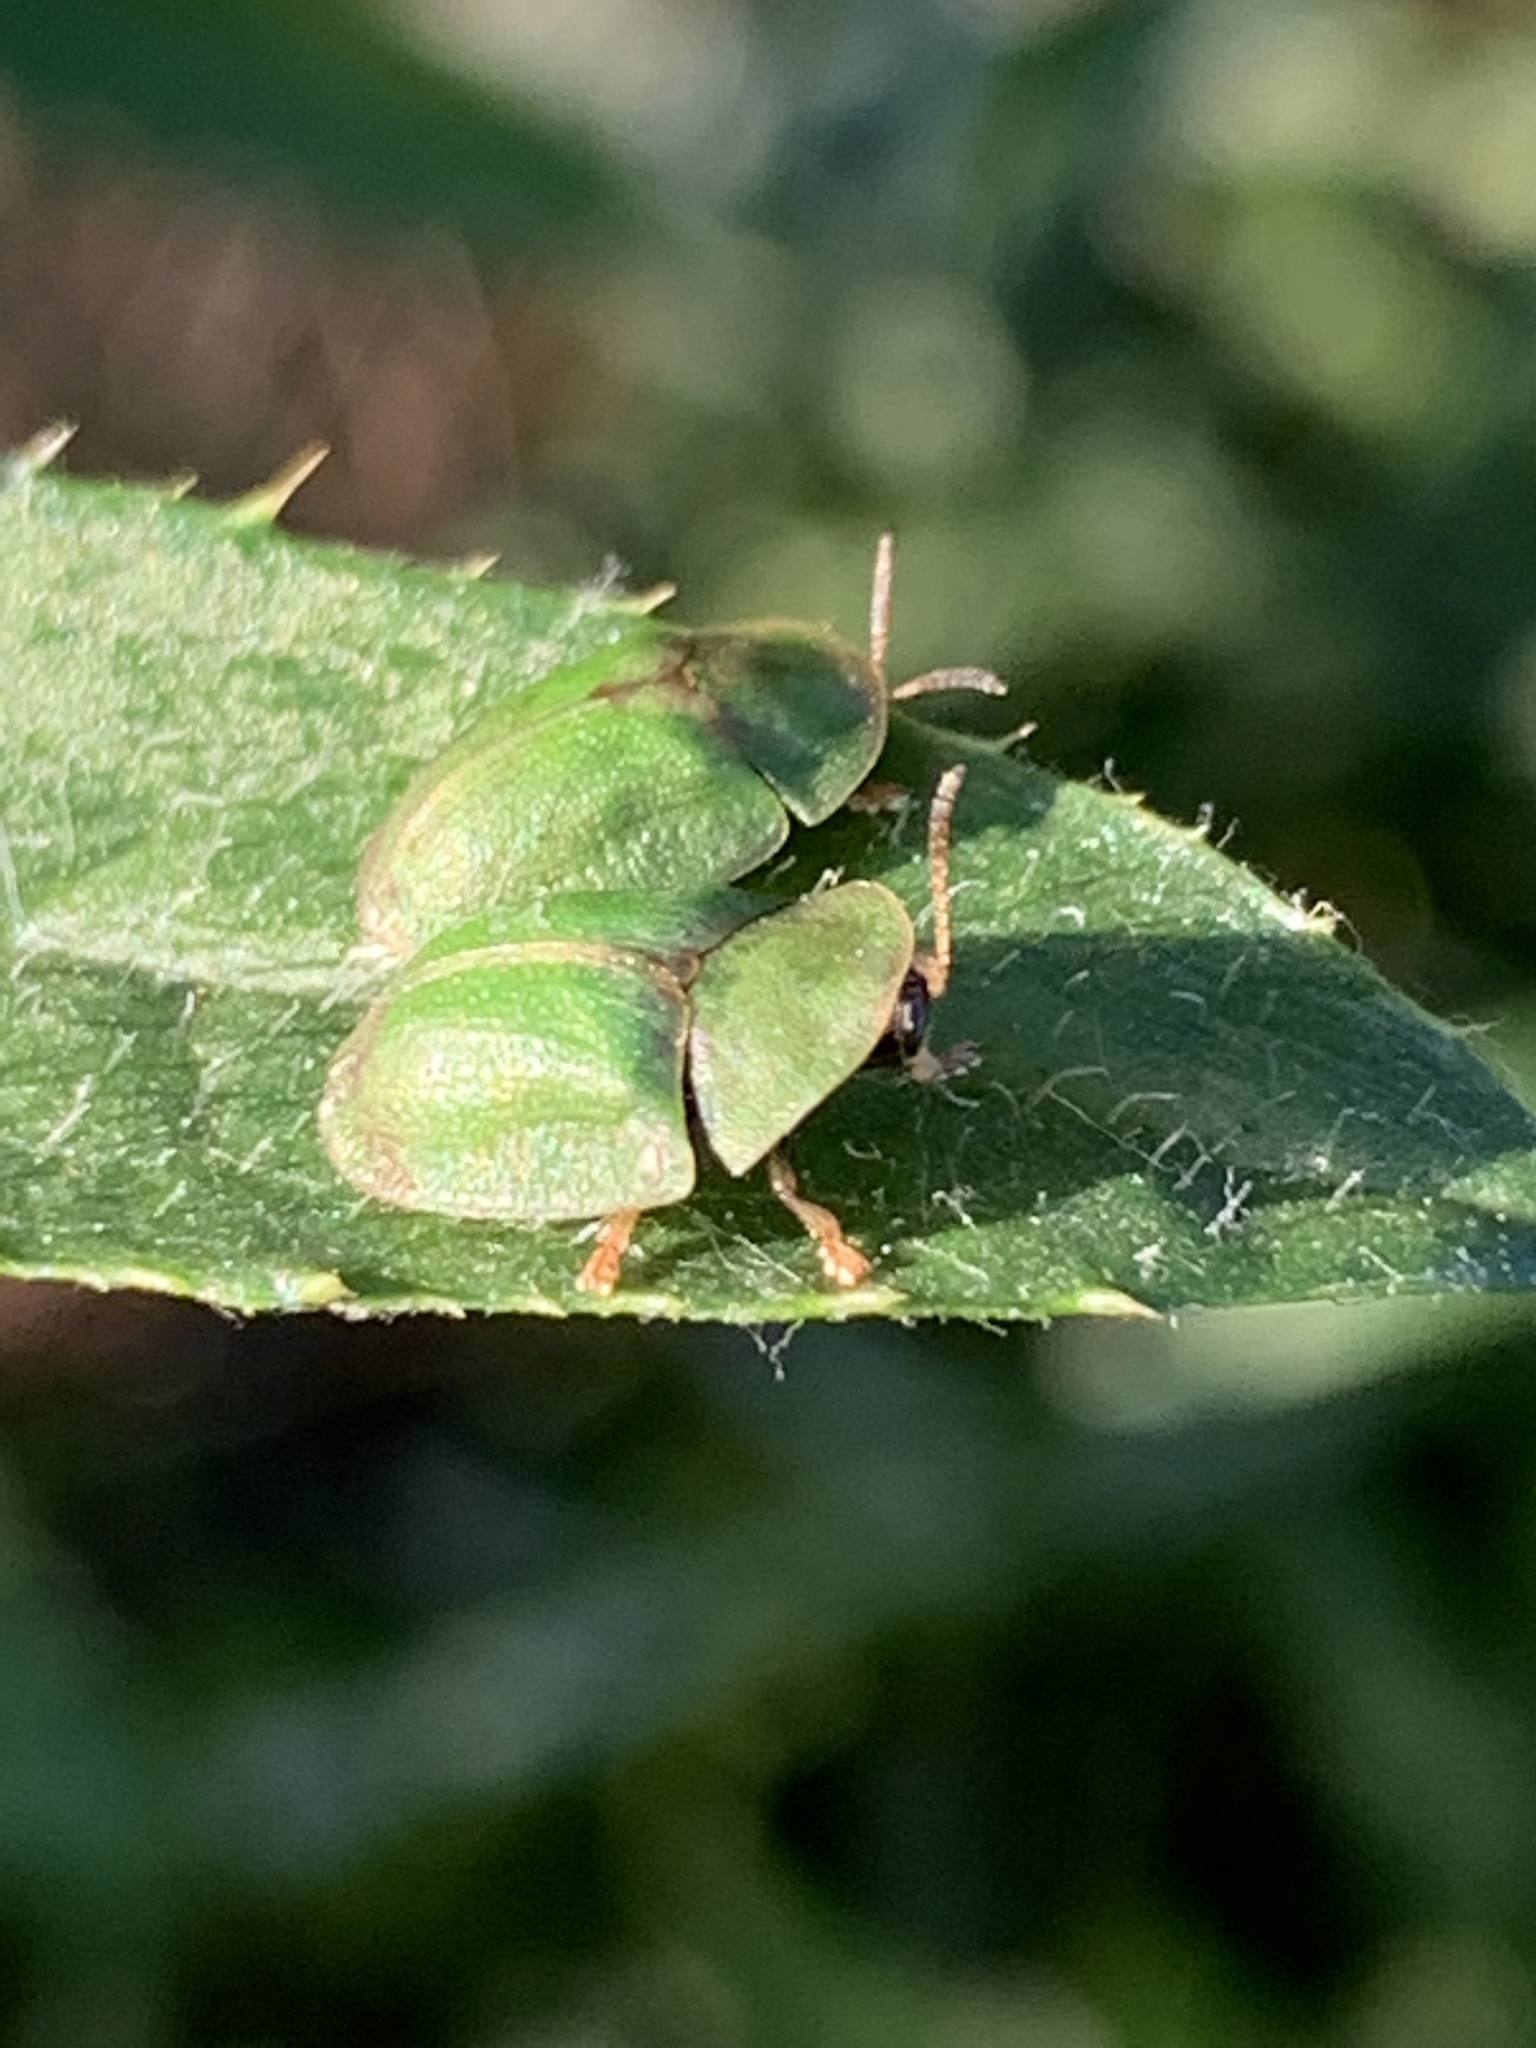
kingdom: Animalia
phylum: Arthropoda
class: Insecta
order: Coleoptera
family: Chrysomelidae
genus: Cassida
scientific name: Cassida rubiginosa
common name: Thistle tortoise beetle
